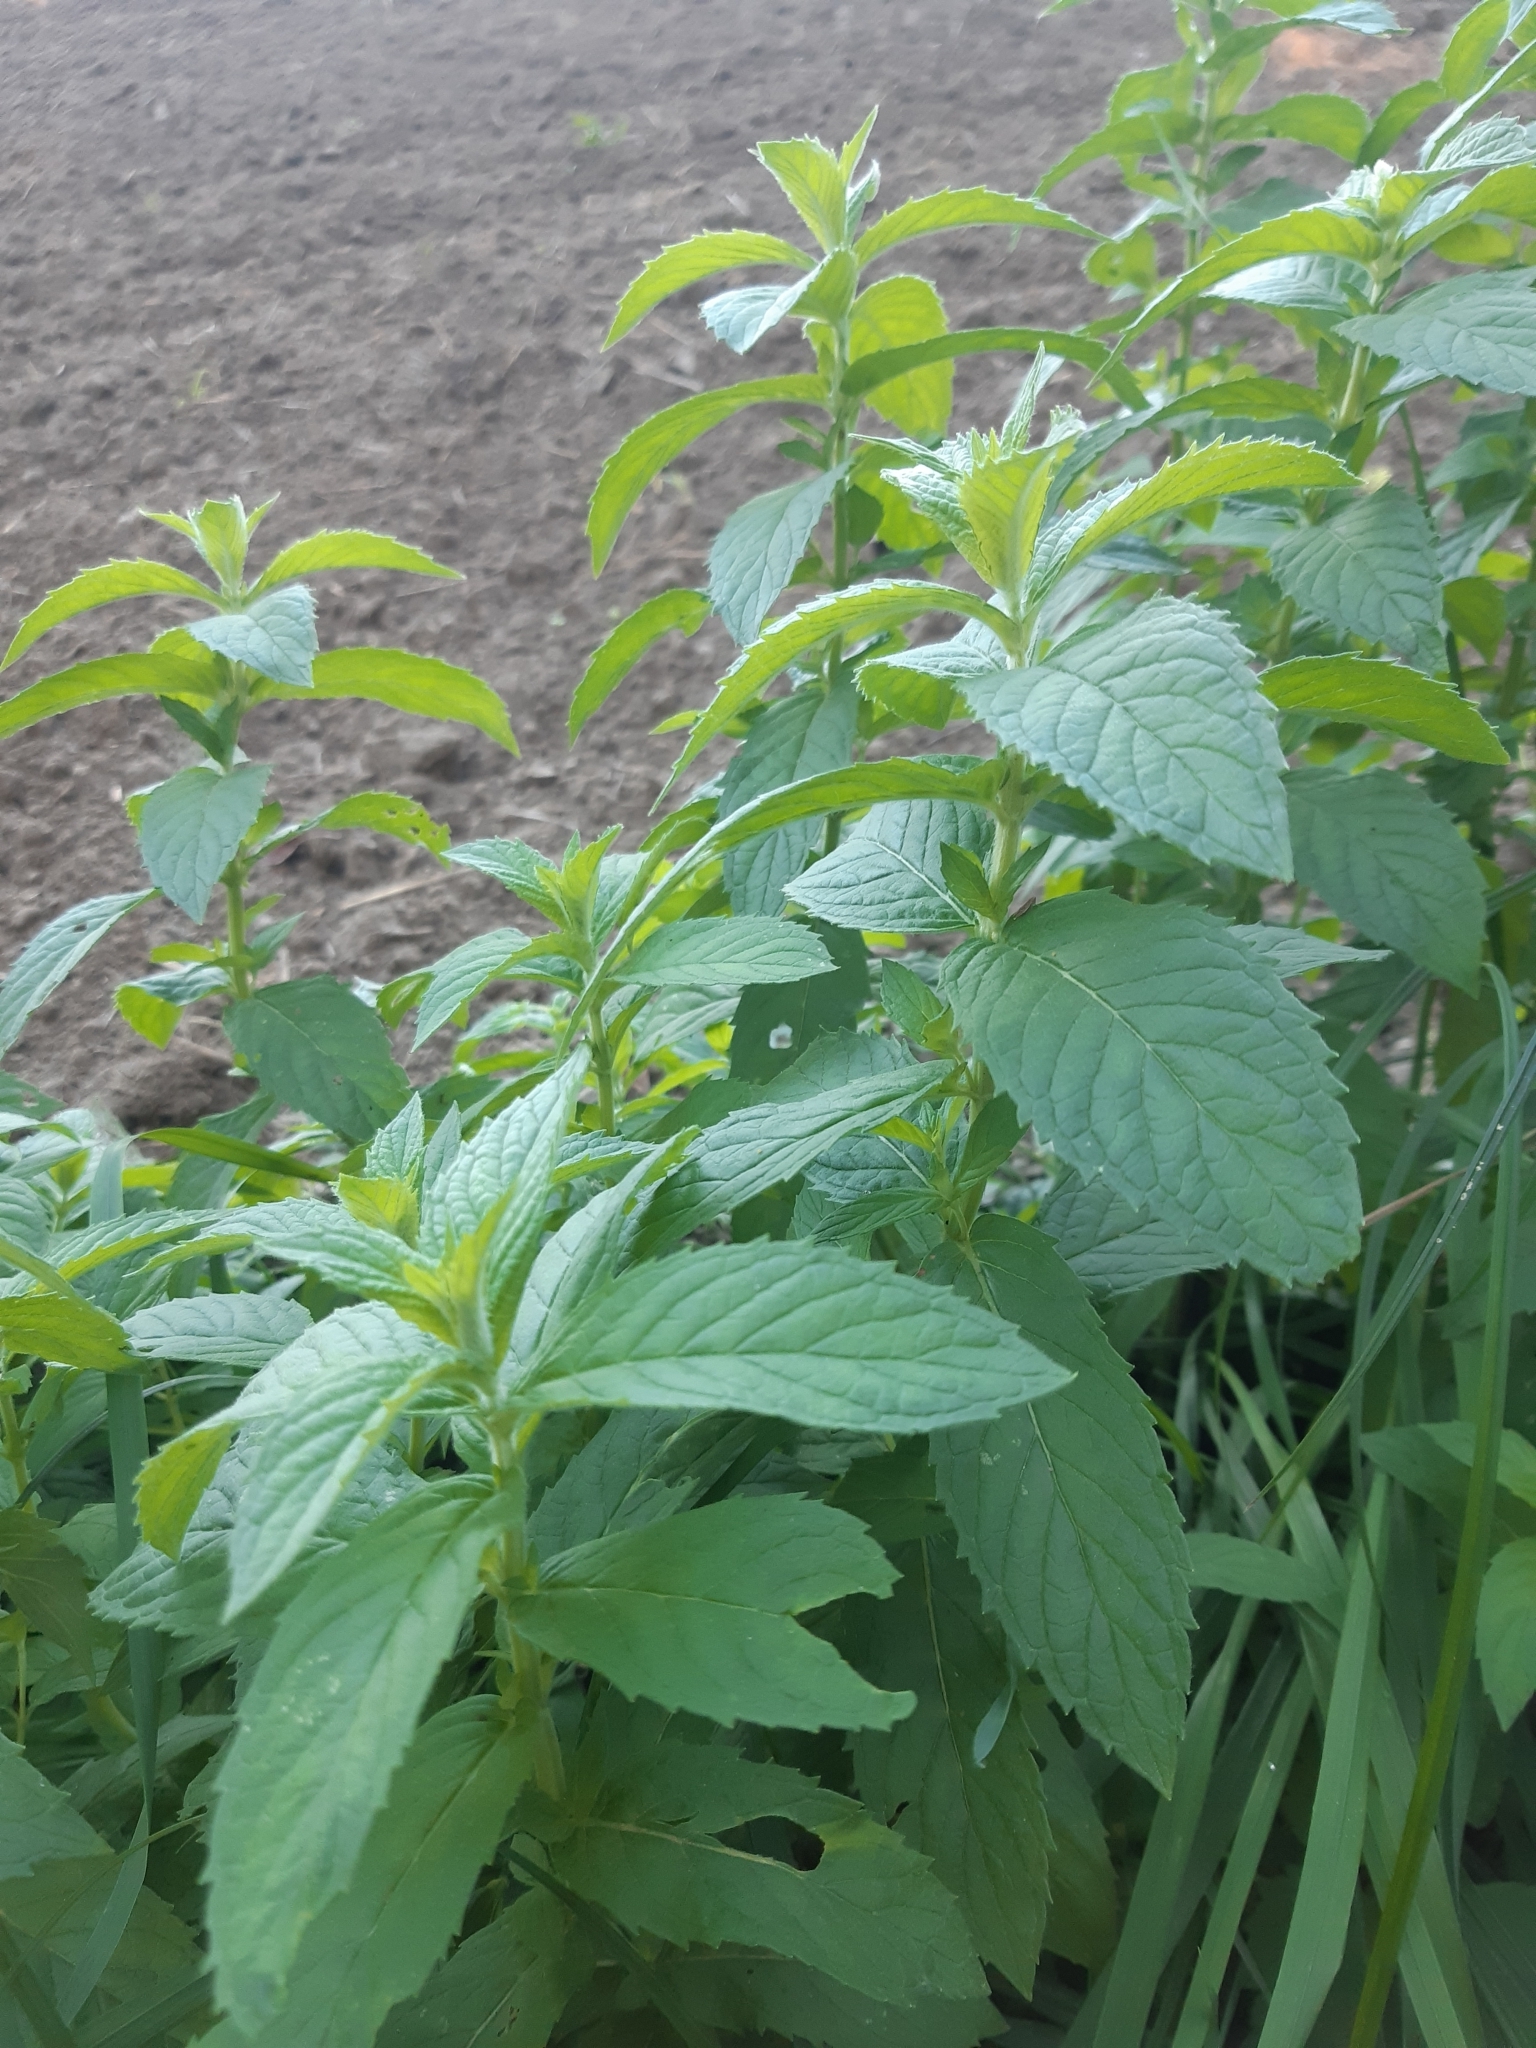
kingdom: Plantae
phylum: Tracheophyta
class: Magnoliopsida
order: Lamiales
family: Lamiaceae
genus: Mentha
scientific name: Mentha longifolia
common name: Horse mint
